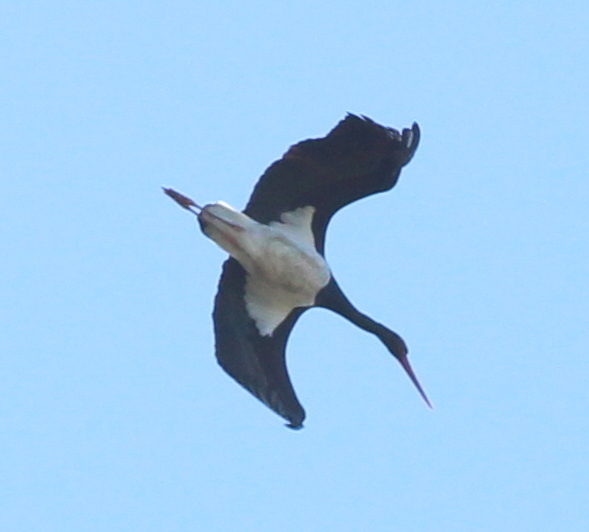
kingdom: Animalia
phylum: Chordata
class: Aves
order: Ciconiiformes
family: Ciconiidae
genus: Ciconia
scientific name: Ciconia nigra
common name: Black stork
